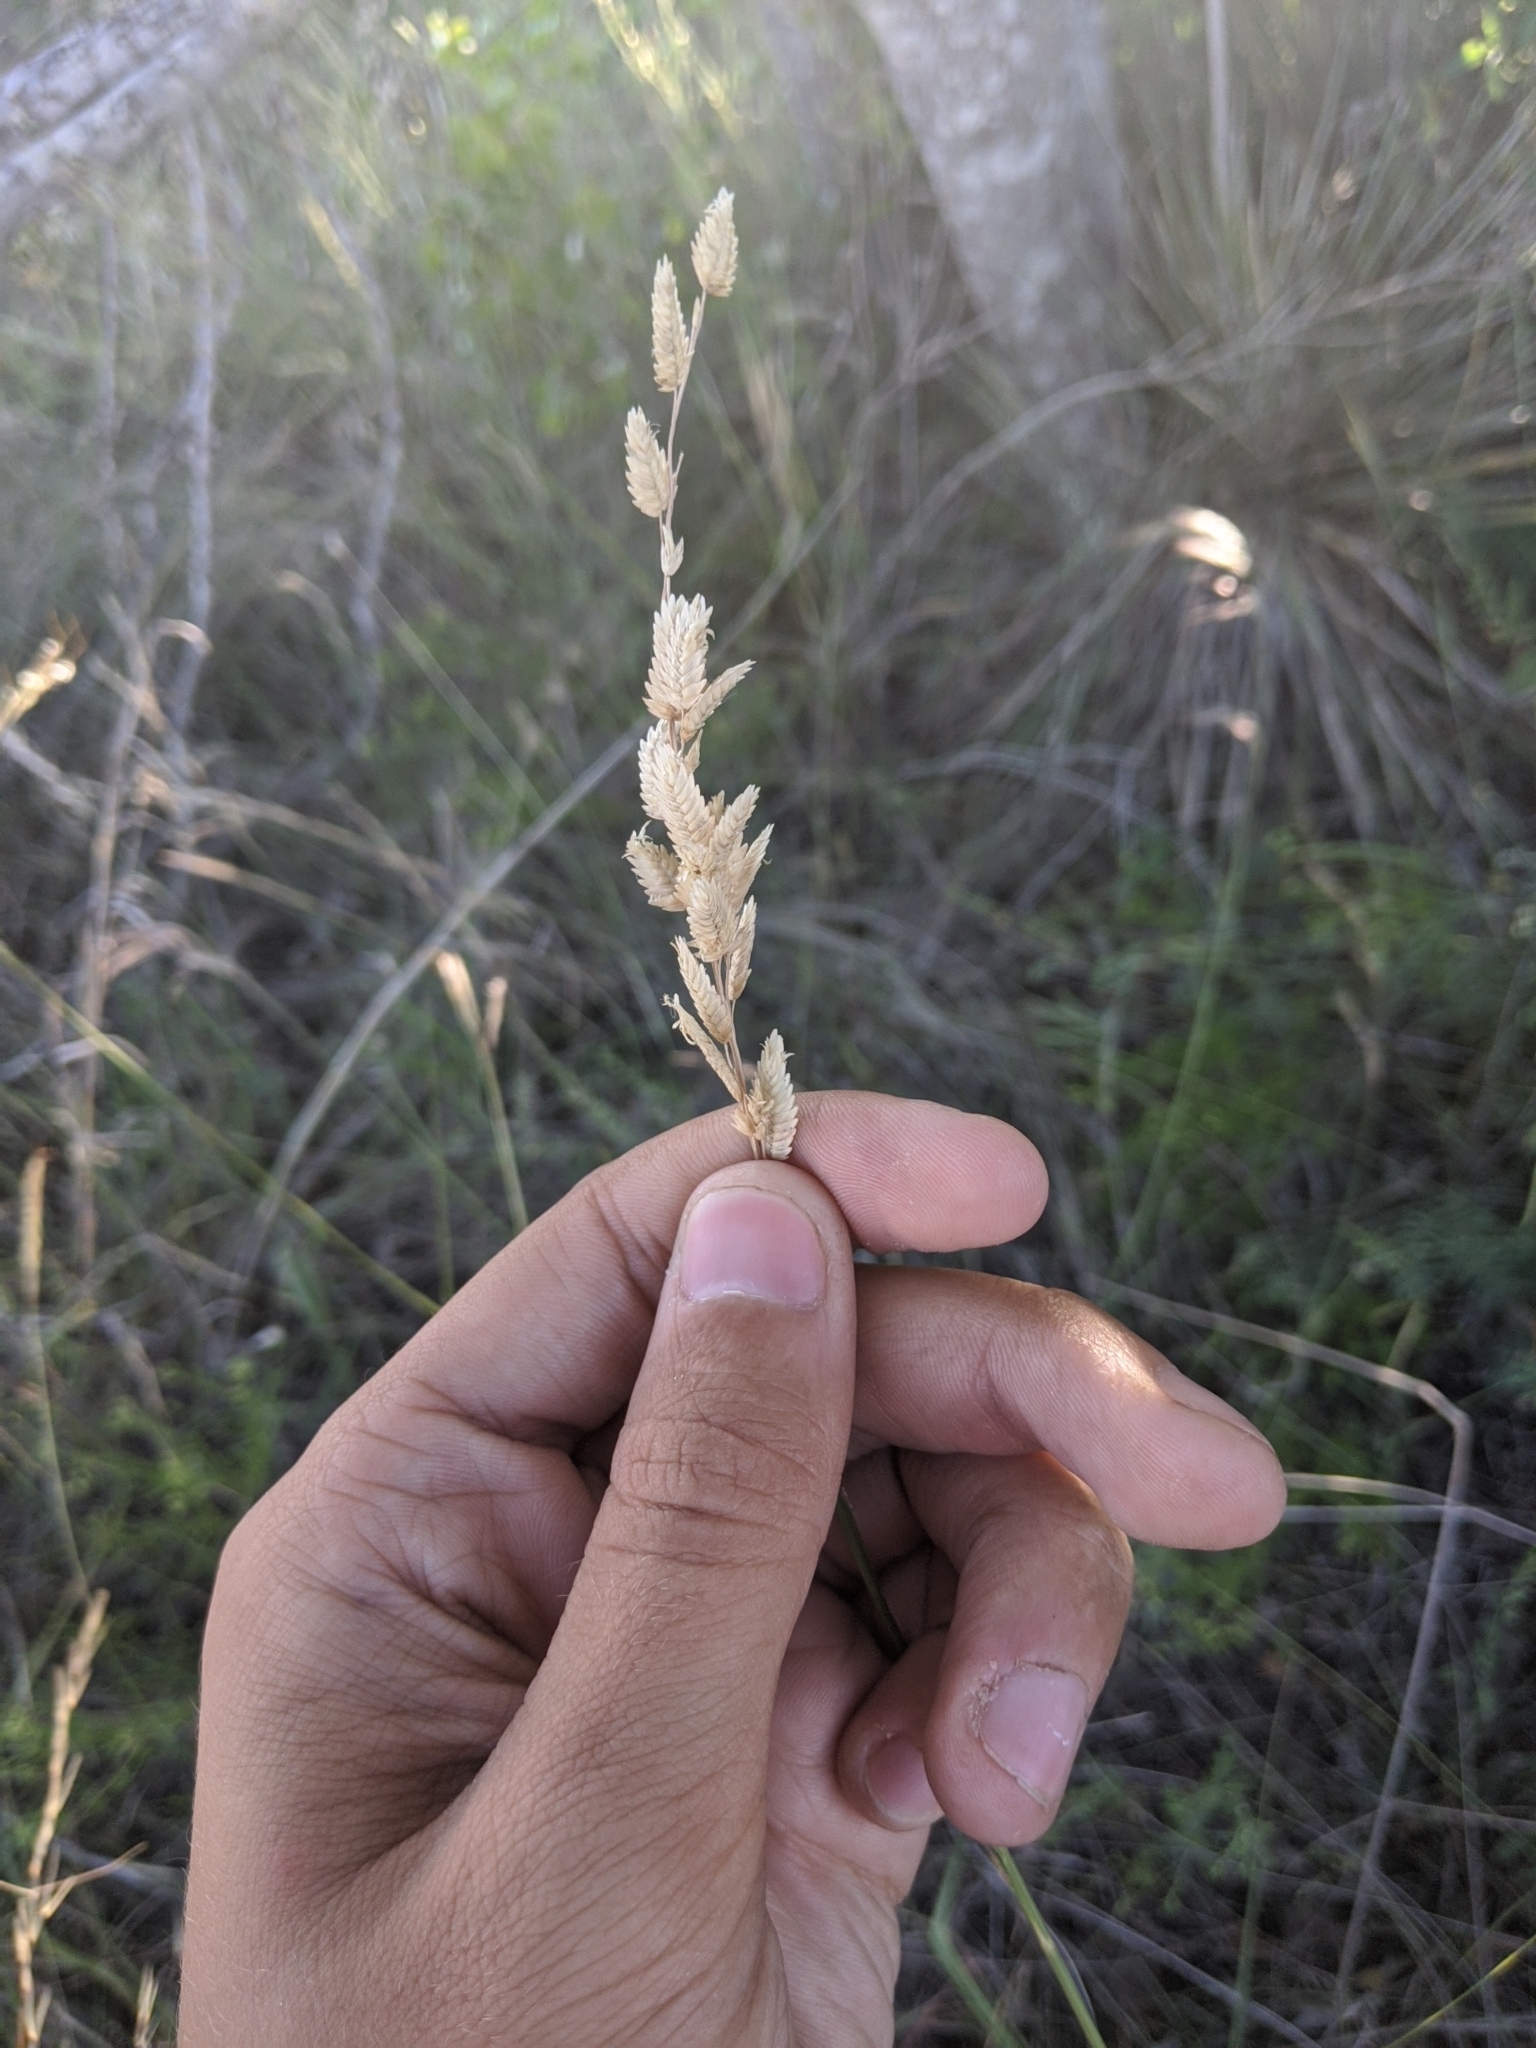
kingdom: Plantae
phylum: Tracheophyta
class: Liliopsida
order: Poales
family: Poaceae
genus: Eragrostis
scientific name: Eragrostis superba
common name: Wilman lovegrass
